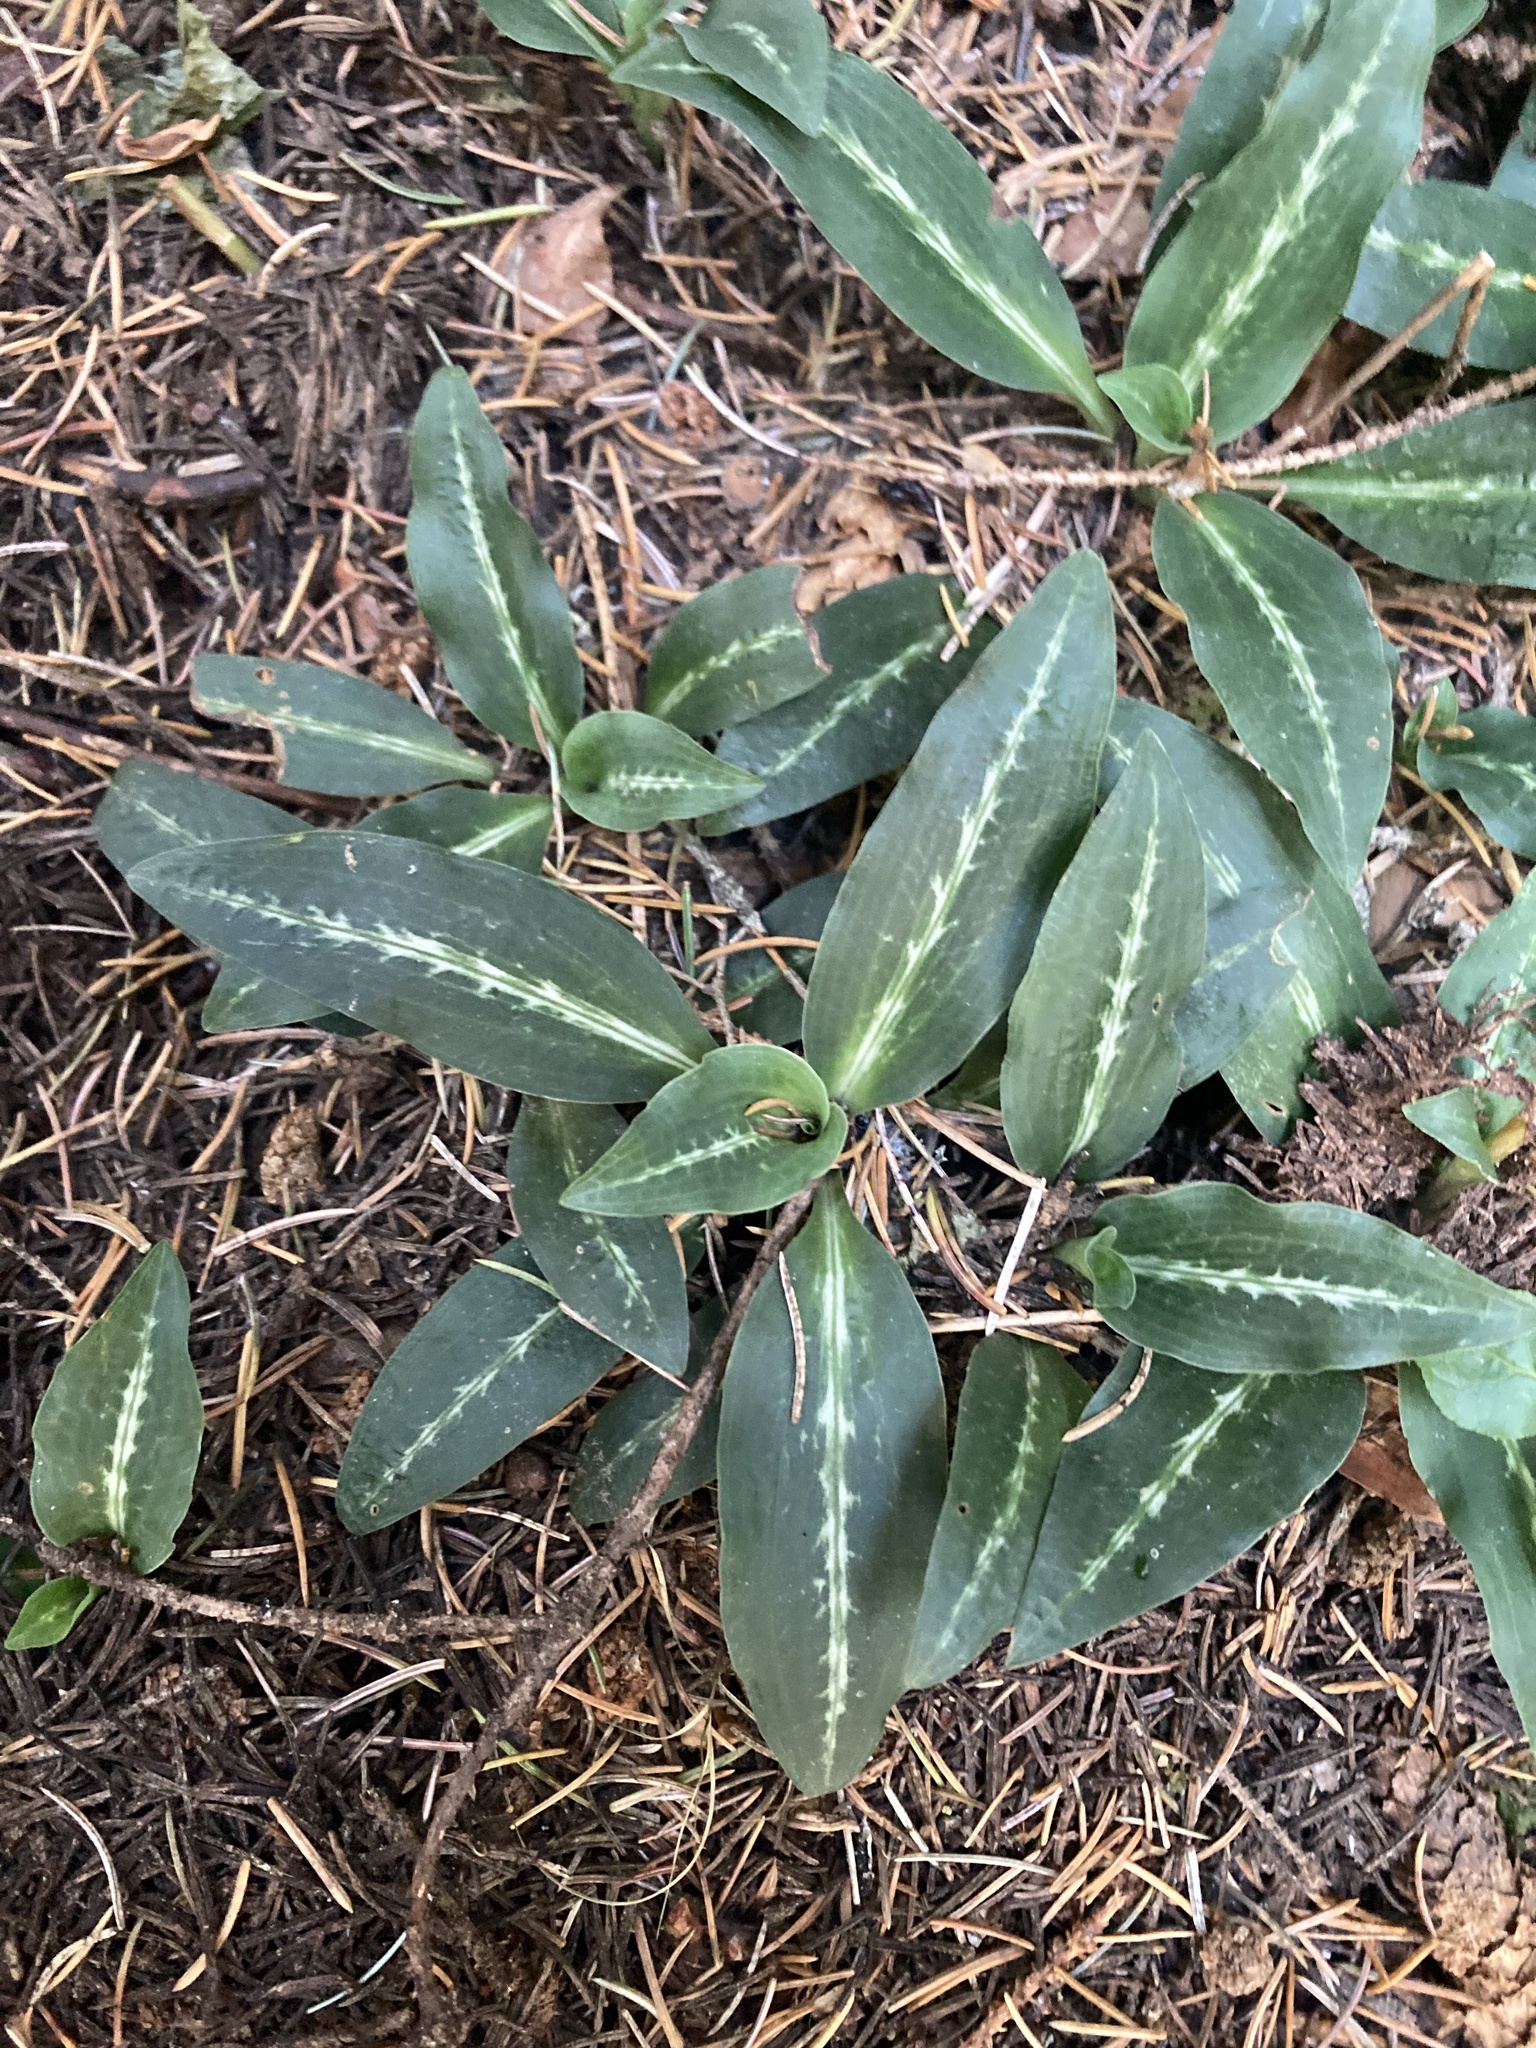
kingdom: Plantae
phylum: Tracheophyta
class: Liliopsida
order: Asparagales
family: Orchidaceae
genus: Goodyera
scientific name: Goodyera oblongifolia
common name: Giant rattlesnake-plantain
